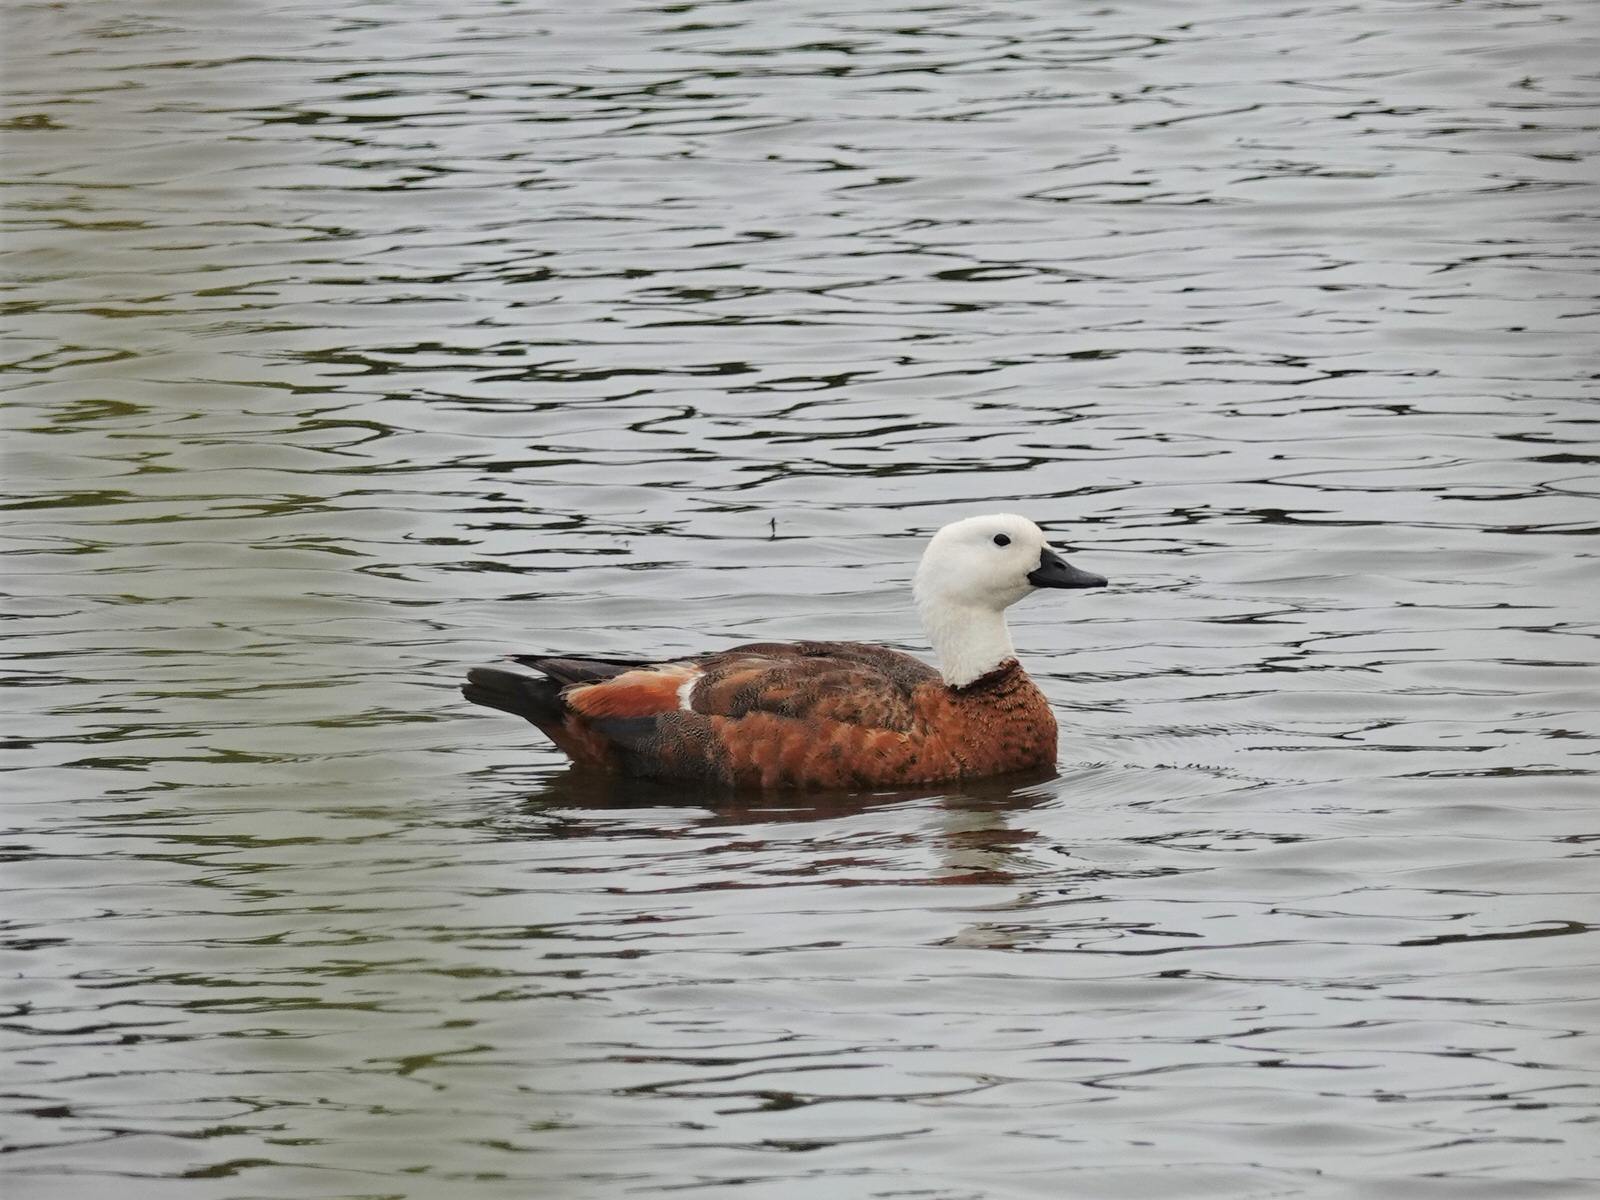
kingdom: Animalia
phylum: Chordata
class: Aves
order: Anseriformes
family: Anatidae
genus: Tadorna
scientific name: Tadorna variegata
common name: Paradise shelduck
